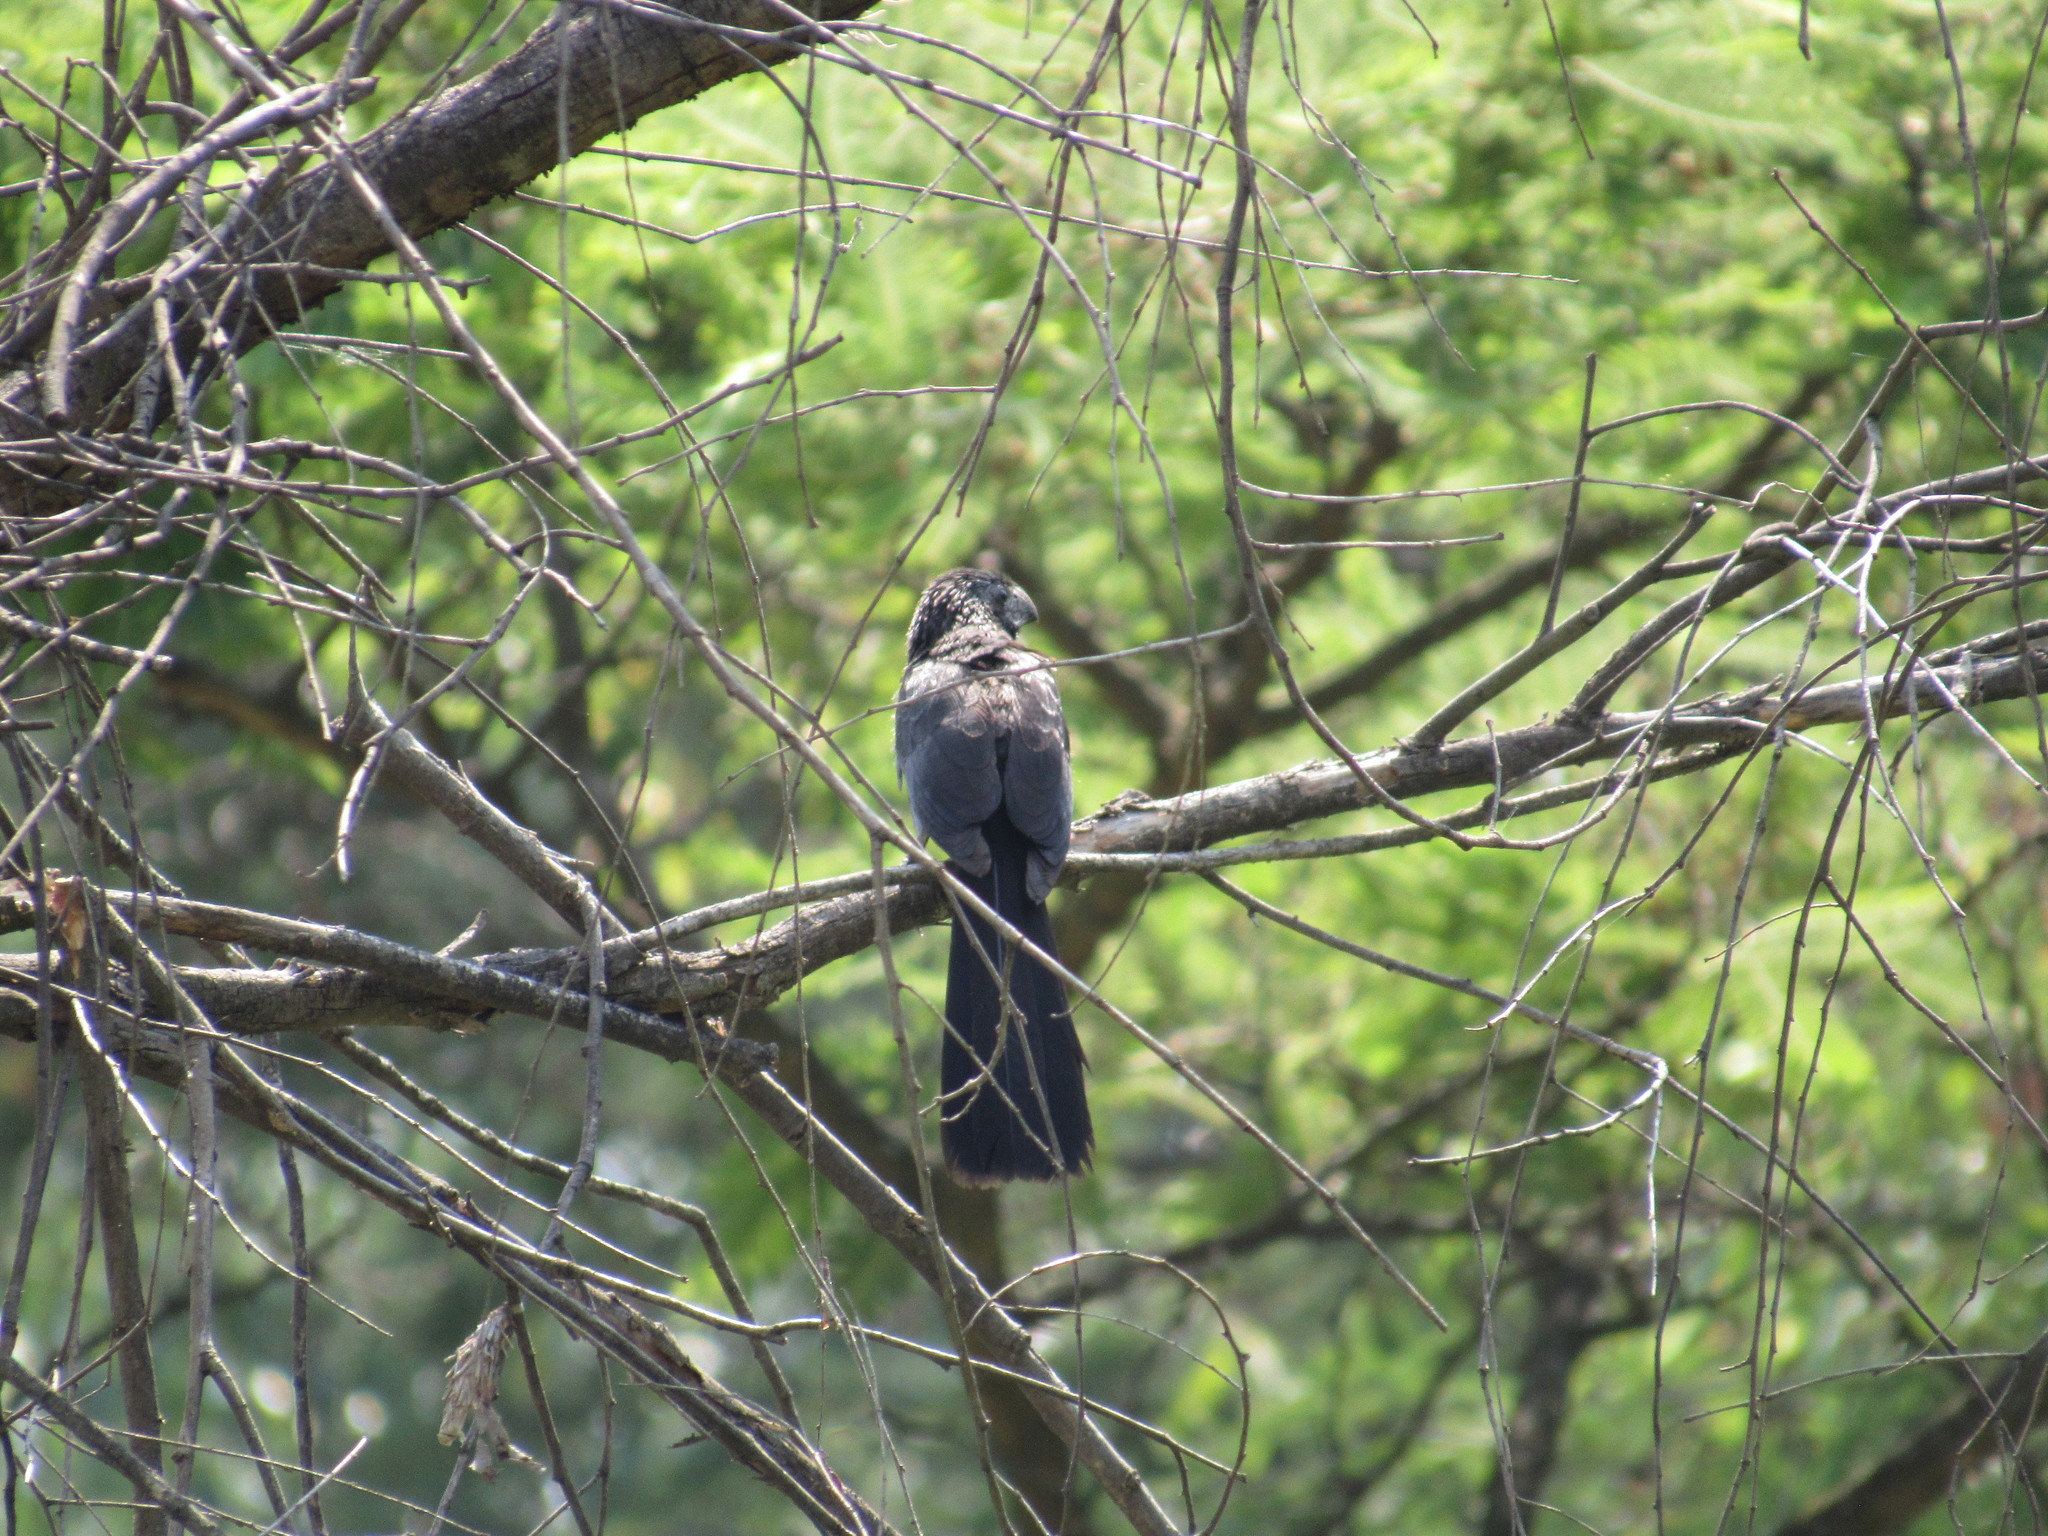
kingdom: Animalia
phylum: Chordata
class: Aves
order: Cuculiformes
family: Cuculidae
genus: Crotophaga
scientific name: Crotophaga sulcirostris
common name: Groove-billed ani
